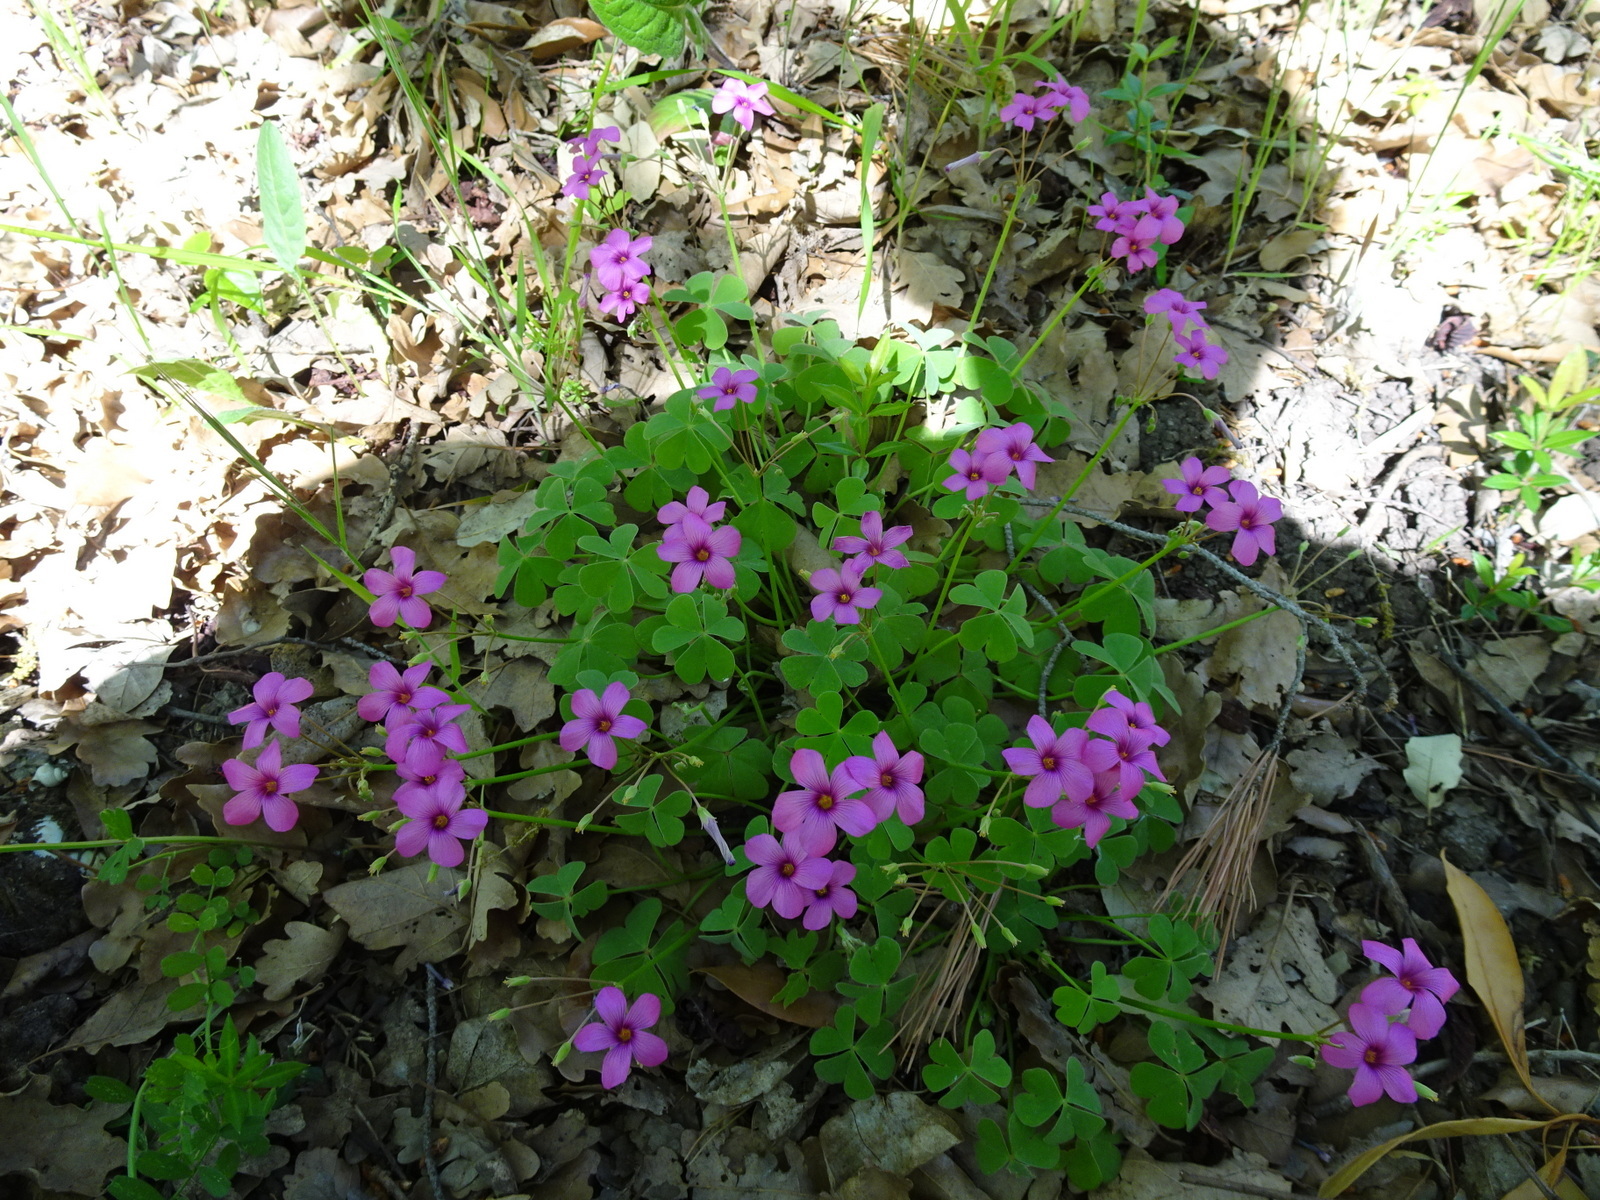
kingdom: Plantae
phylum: Tracheophyta
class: Magnoliopsida
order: Oxalidales
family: Oxalidaceae
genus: Oxalis
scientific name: Oxalis articulata
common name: Pink-sorrel
